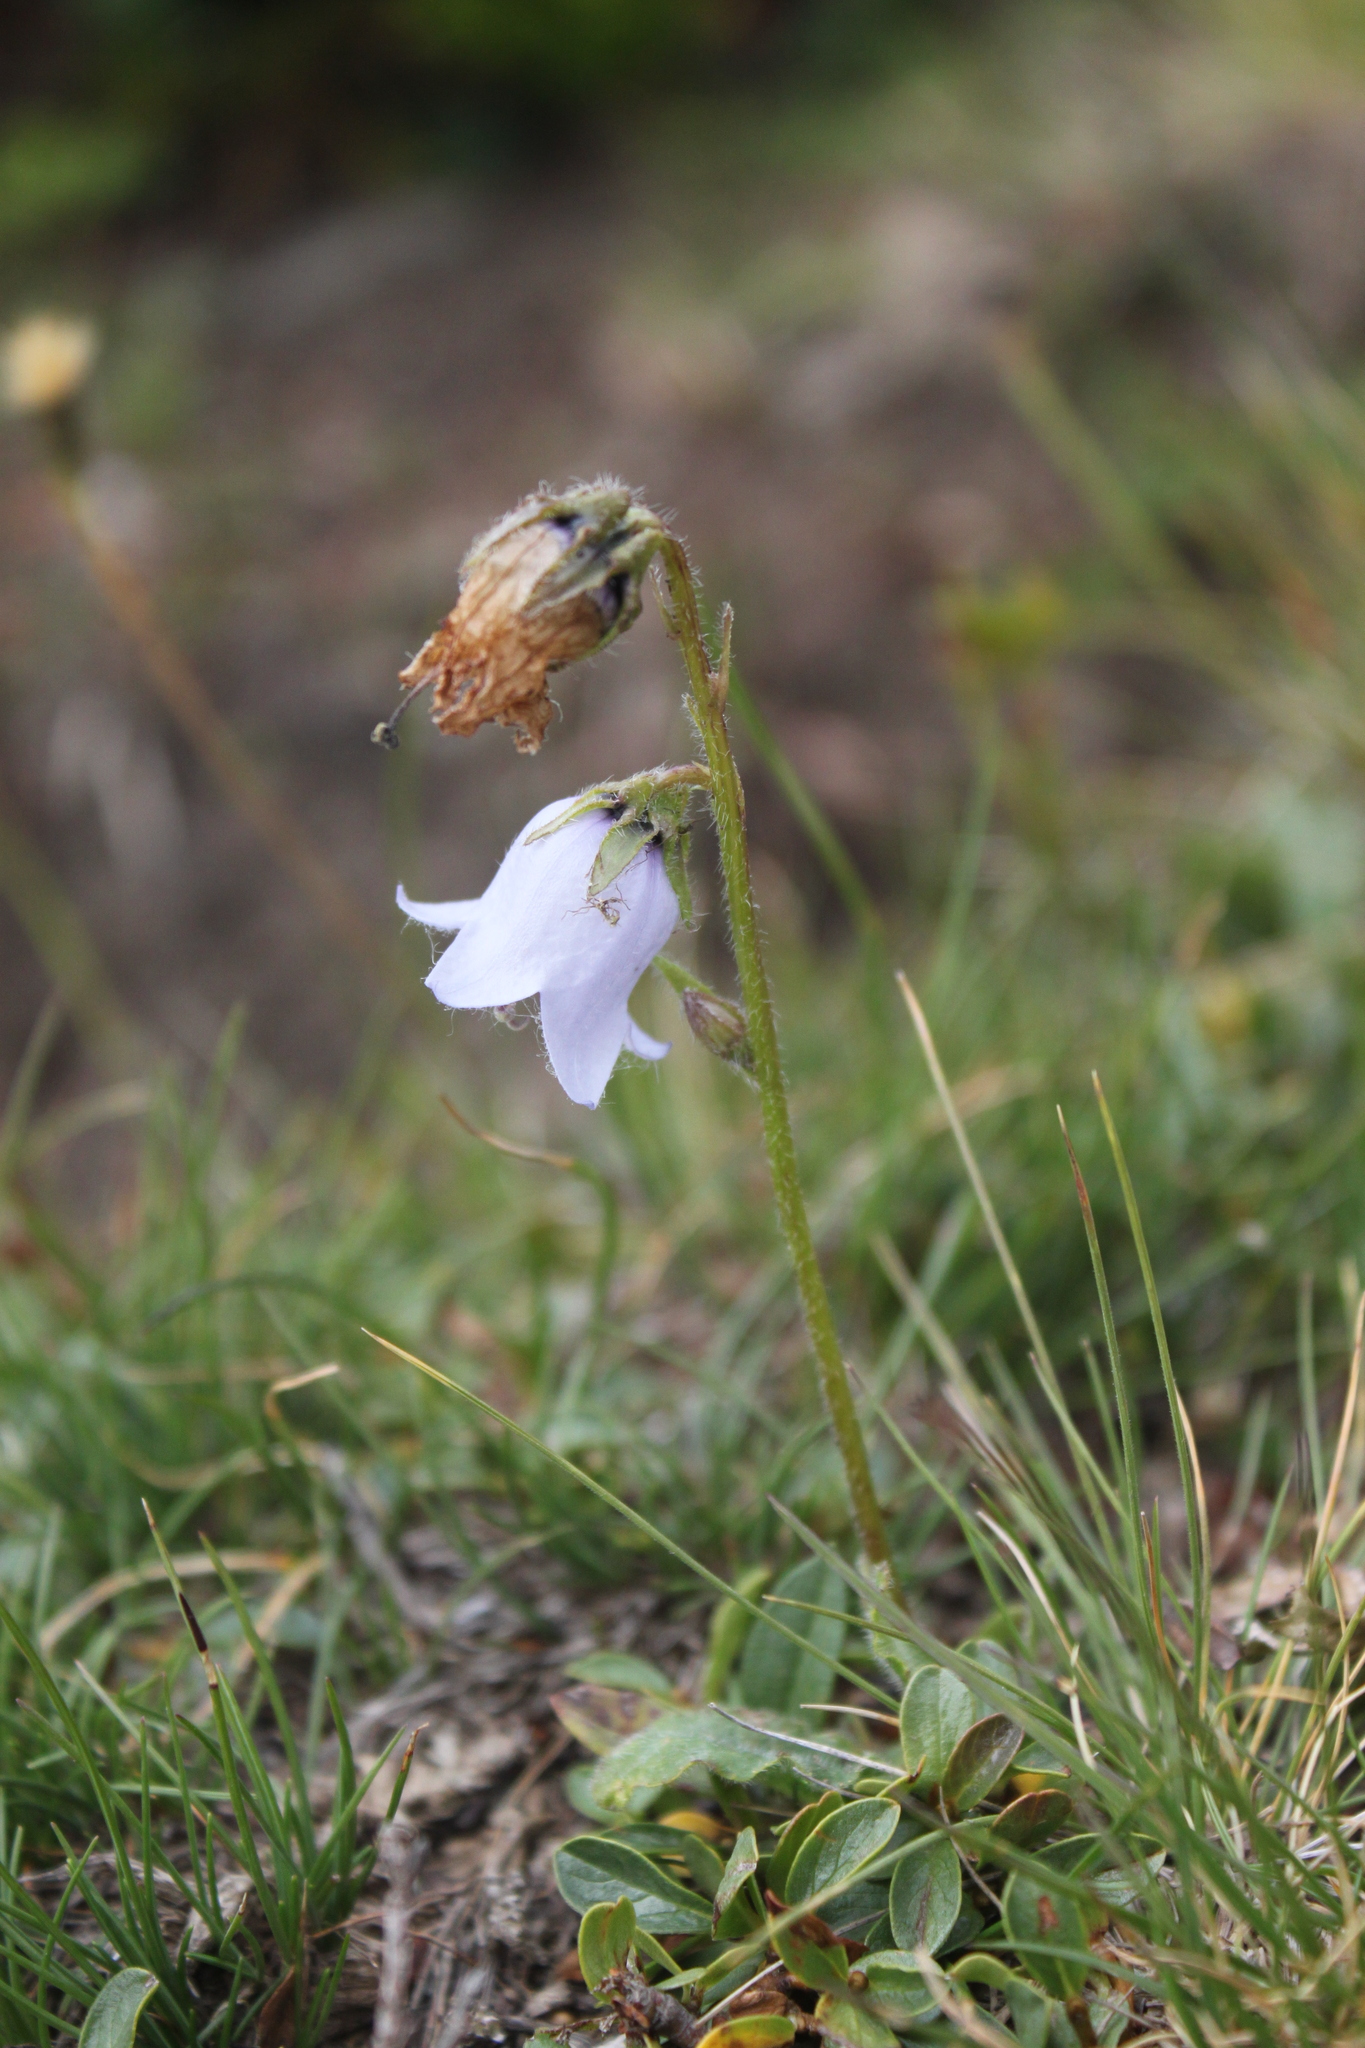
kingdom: Plantae
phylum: Tracheophyta
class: Magnoliopsida
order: Asterales
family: Campanulaceae
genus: Campanula
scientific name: Campanula barbata
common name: Bearded bellflower
